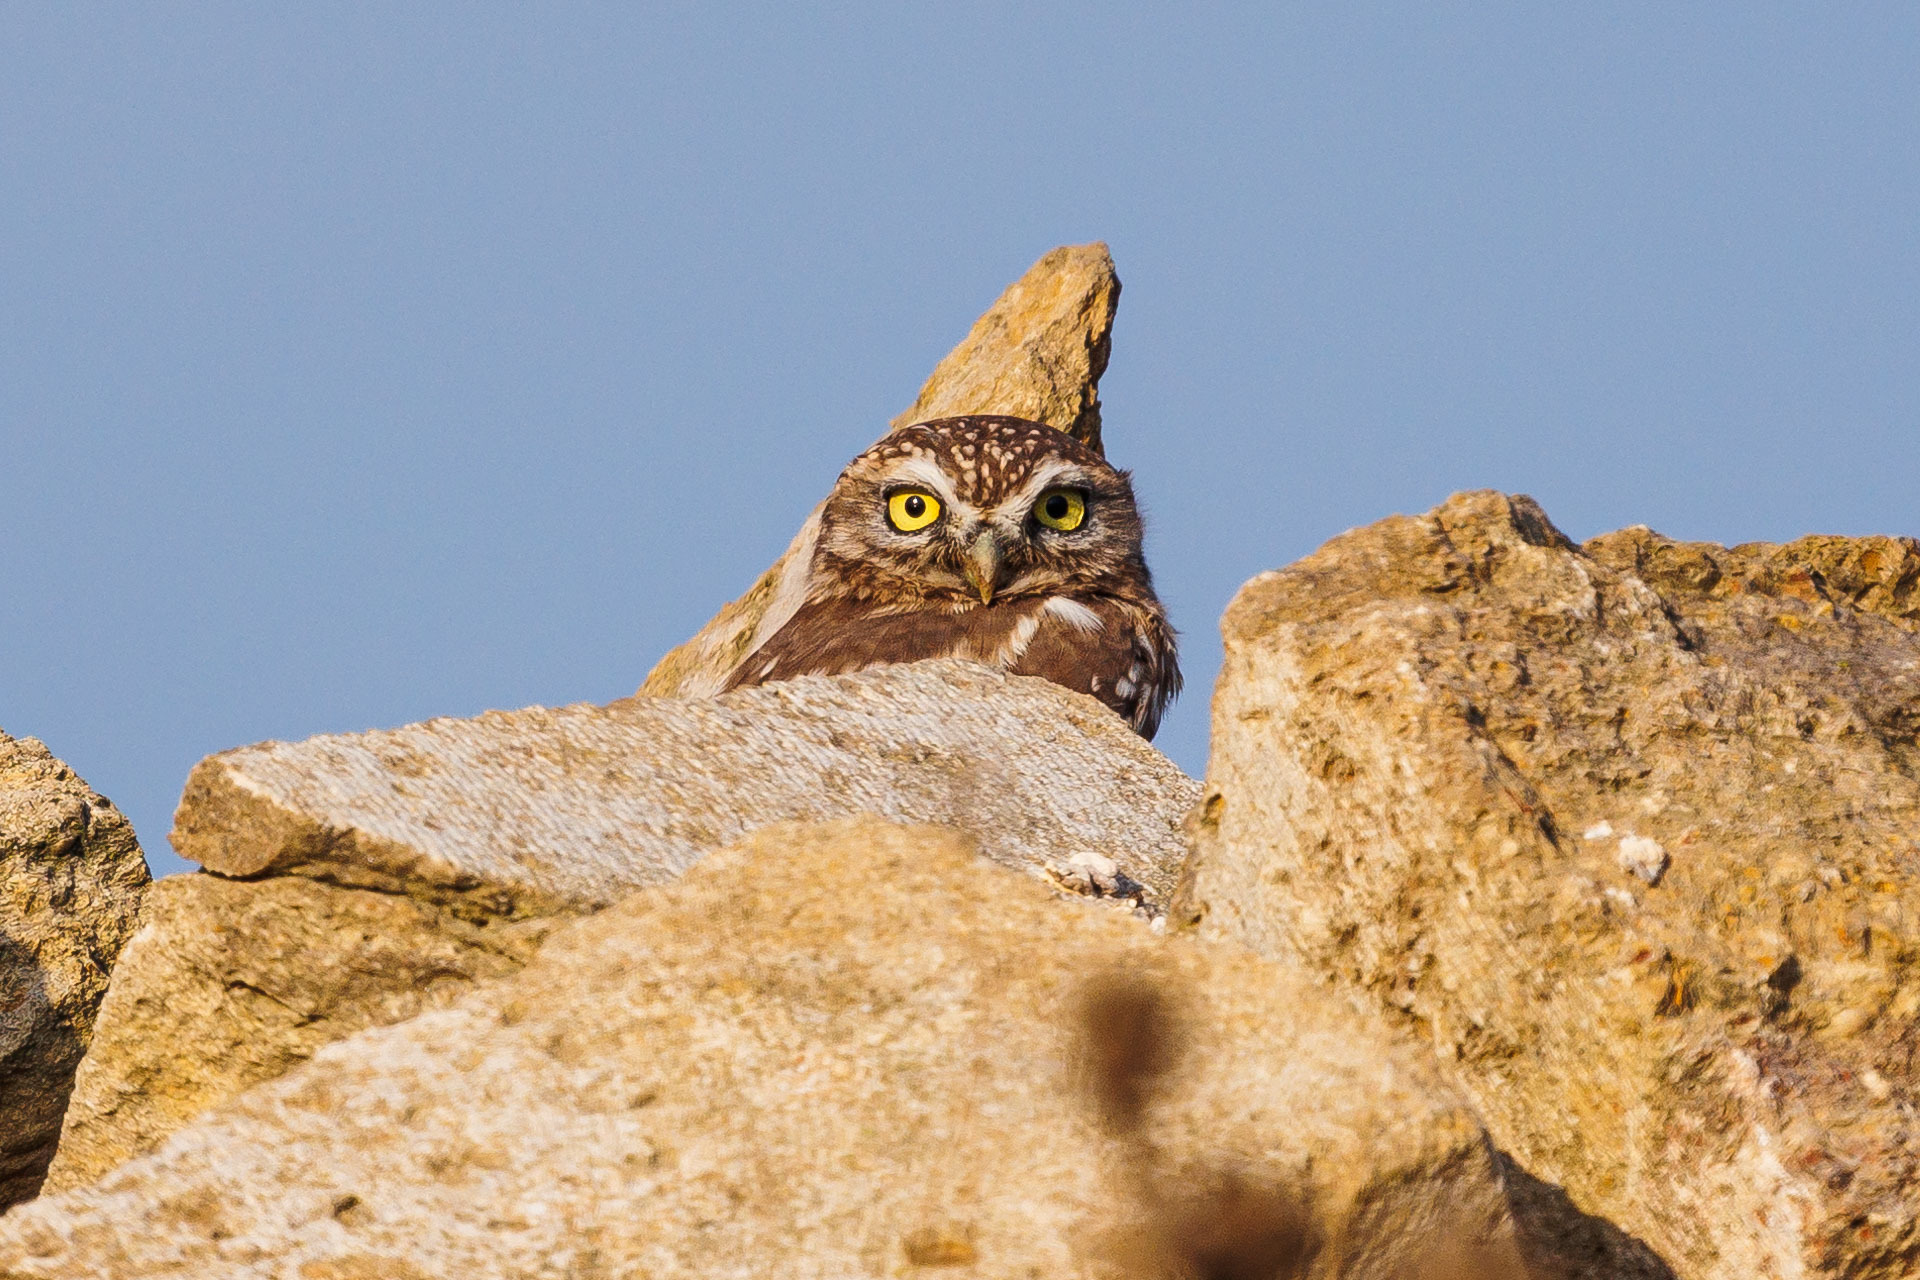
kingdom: Animalia
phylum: Chordata
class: Aves
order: Strigiformes
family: Strigidae
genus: Athene
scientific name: Athene noctua
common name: Little owl
